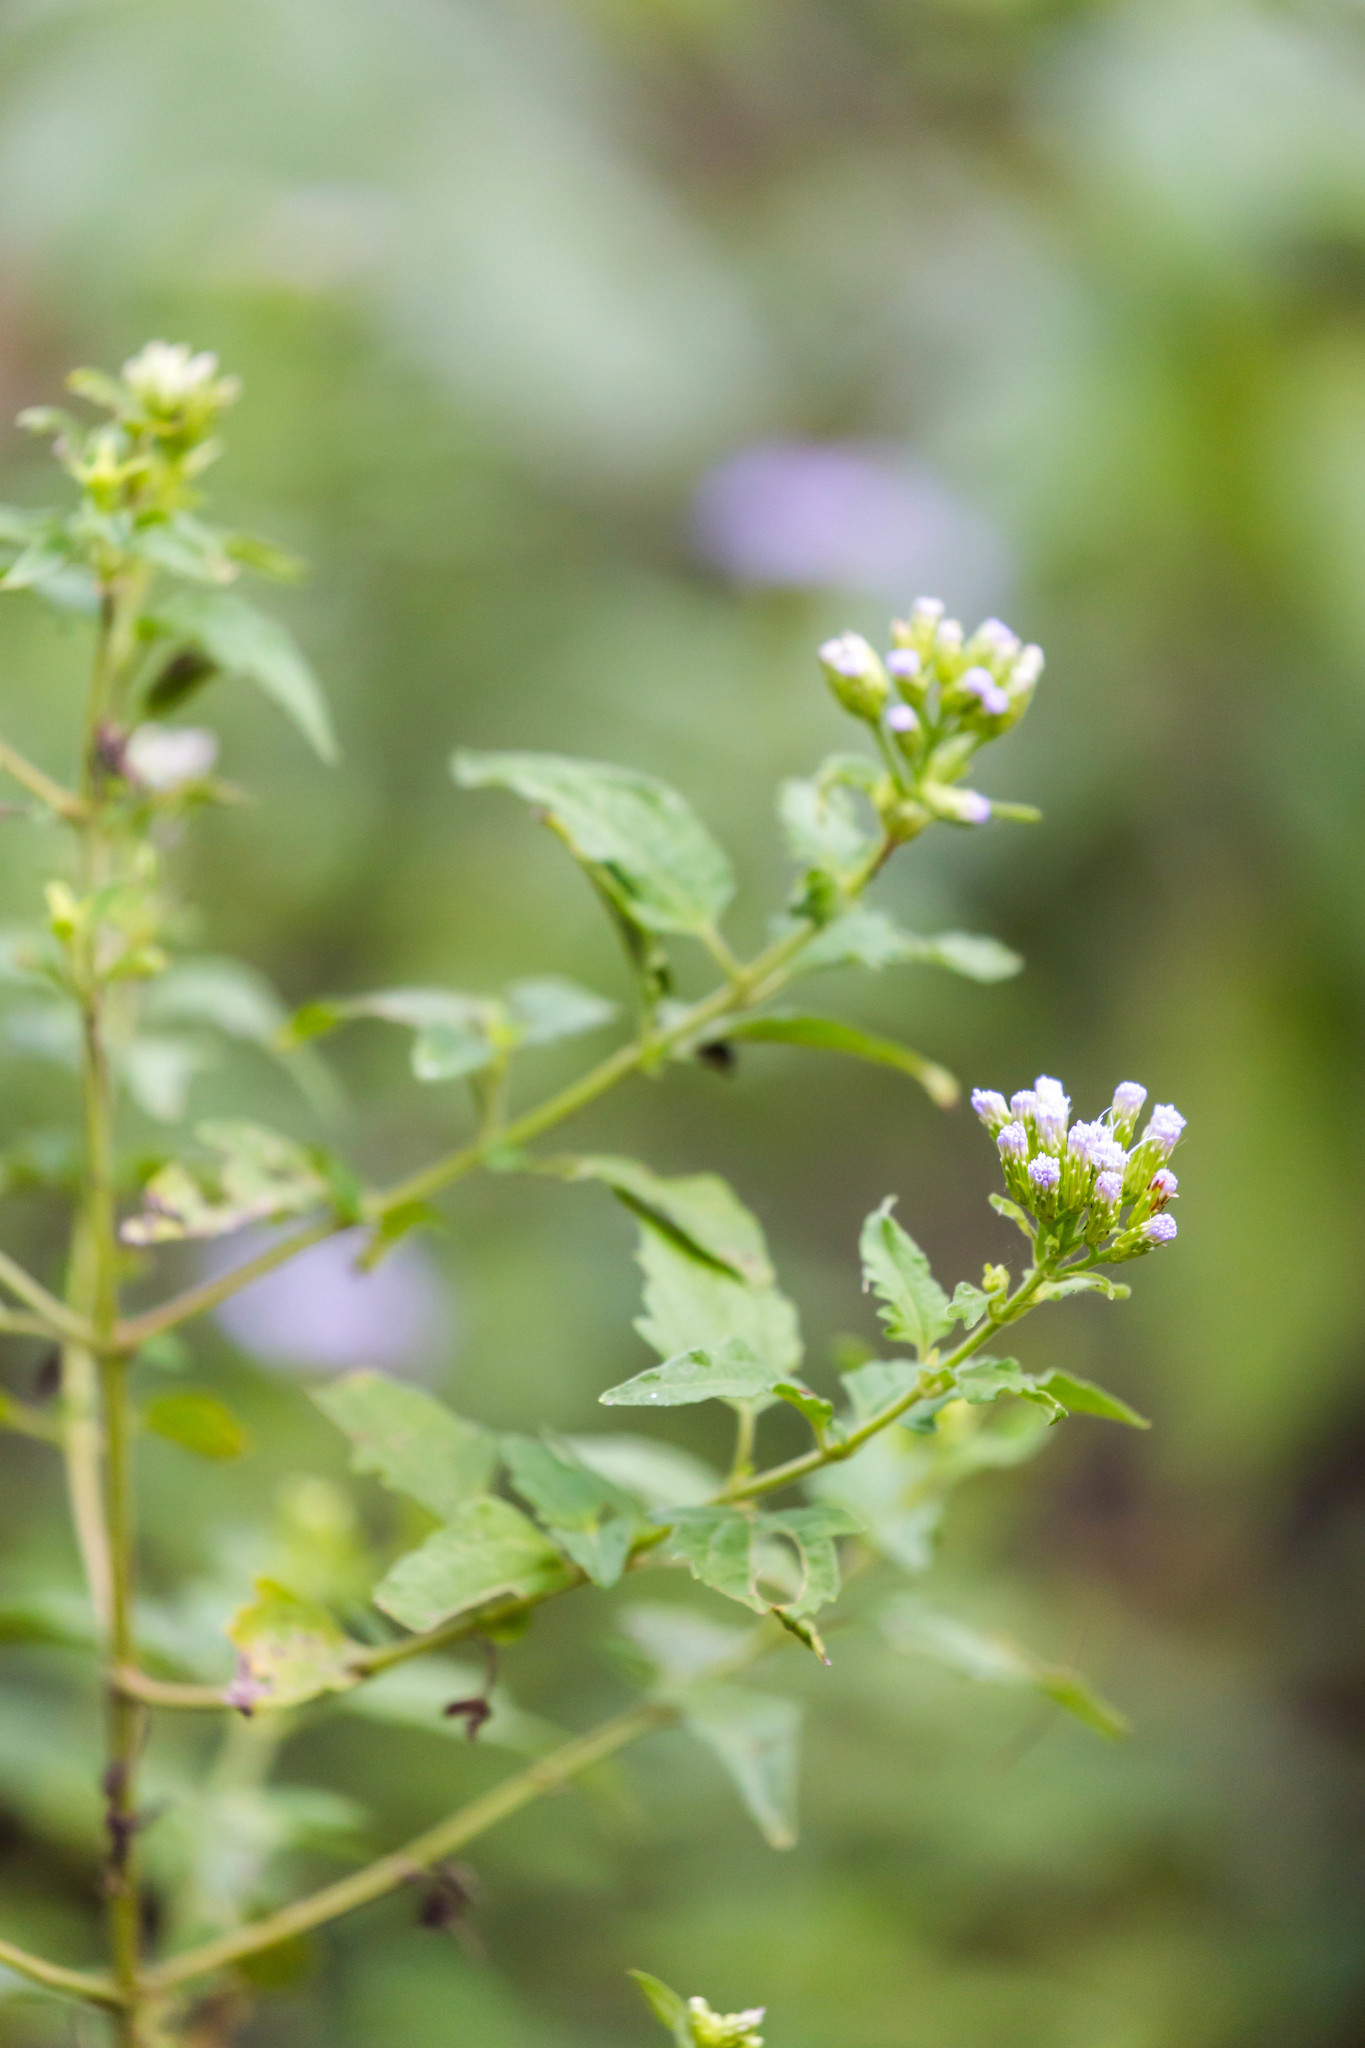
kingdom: Plantae
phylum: Tracheophyta
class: Magnoliopsida
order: Asterales
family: Asteraceae
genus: Chromolaena
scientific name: Chromolaena odorata
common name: Siamweed
